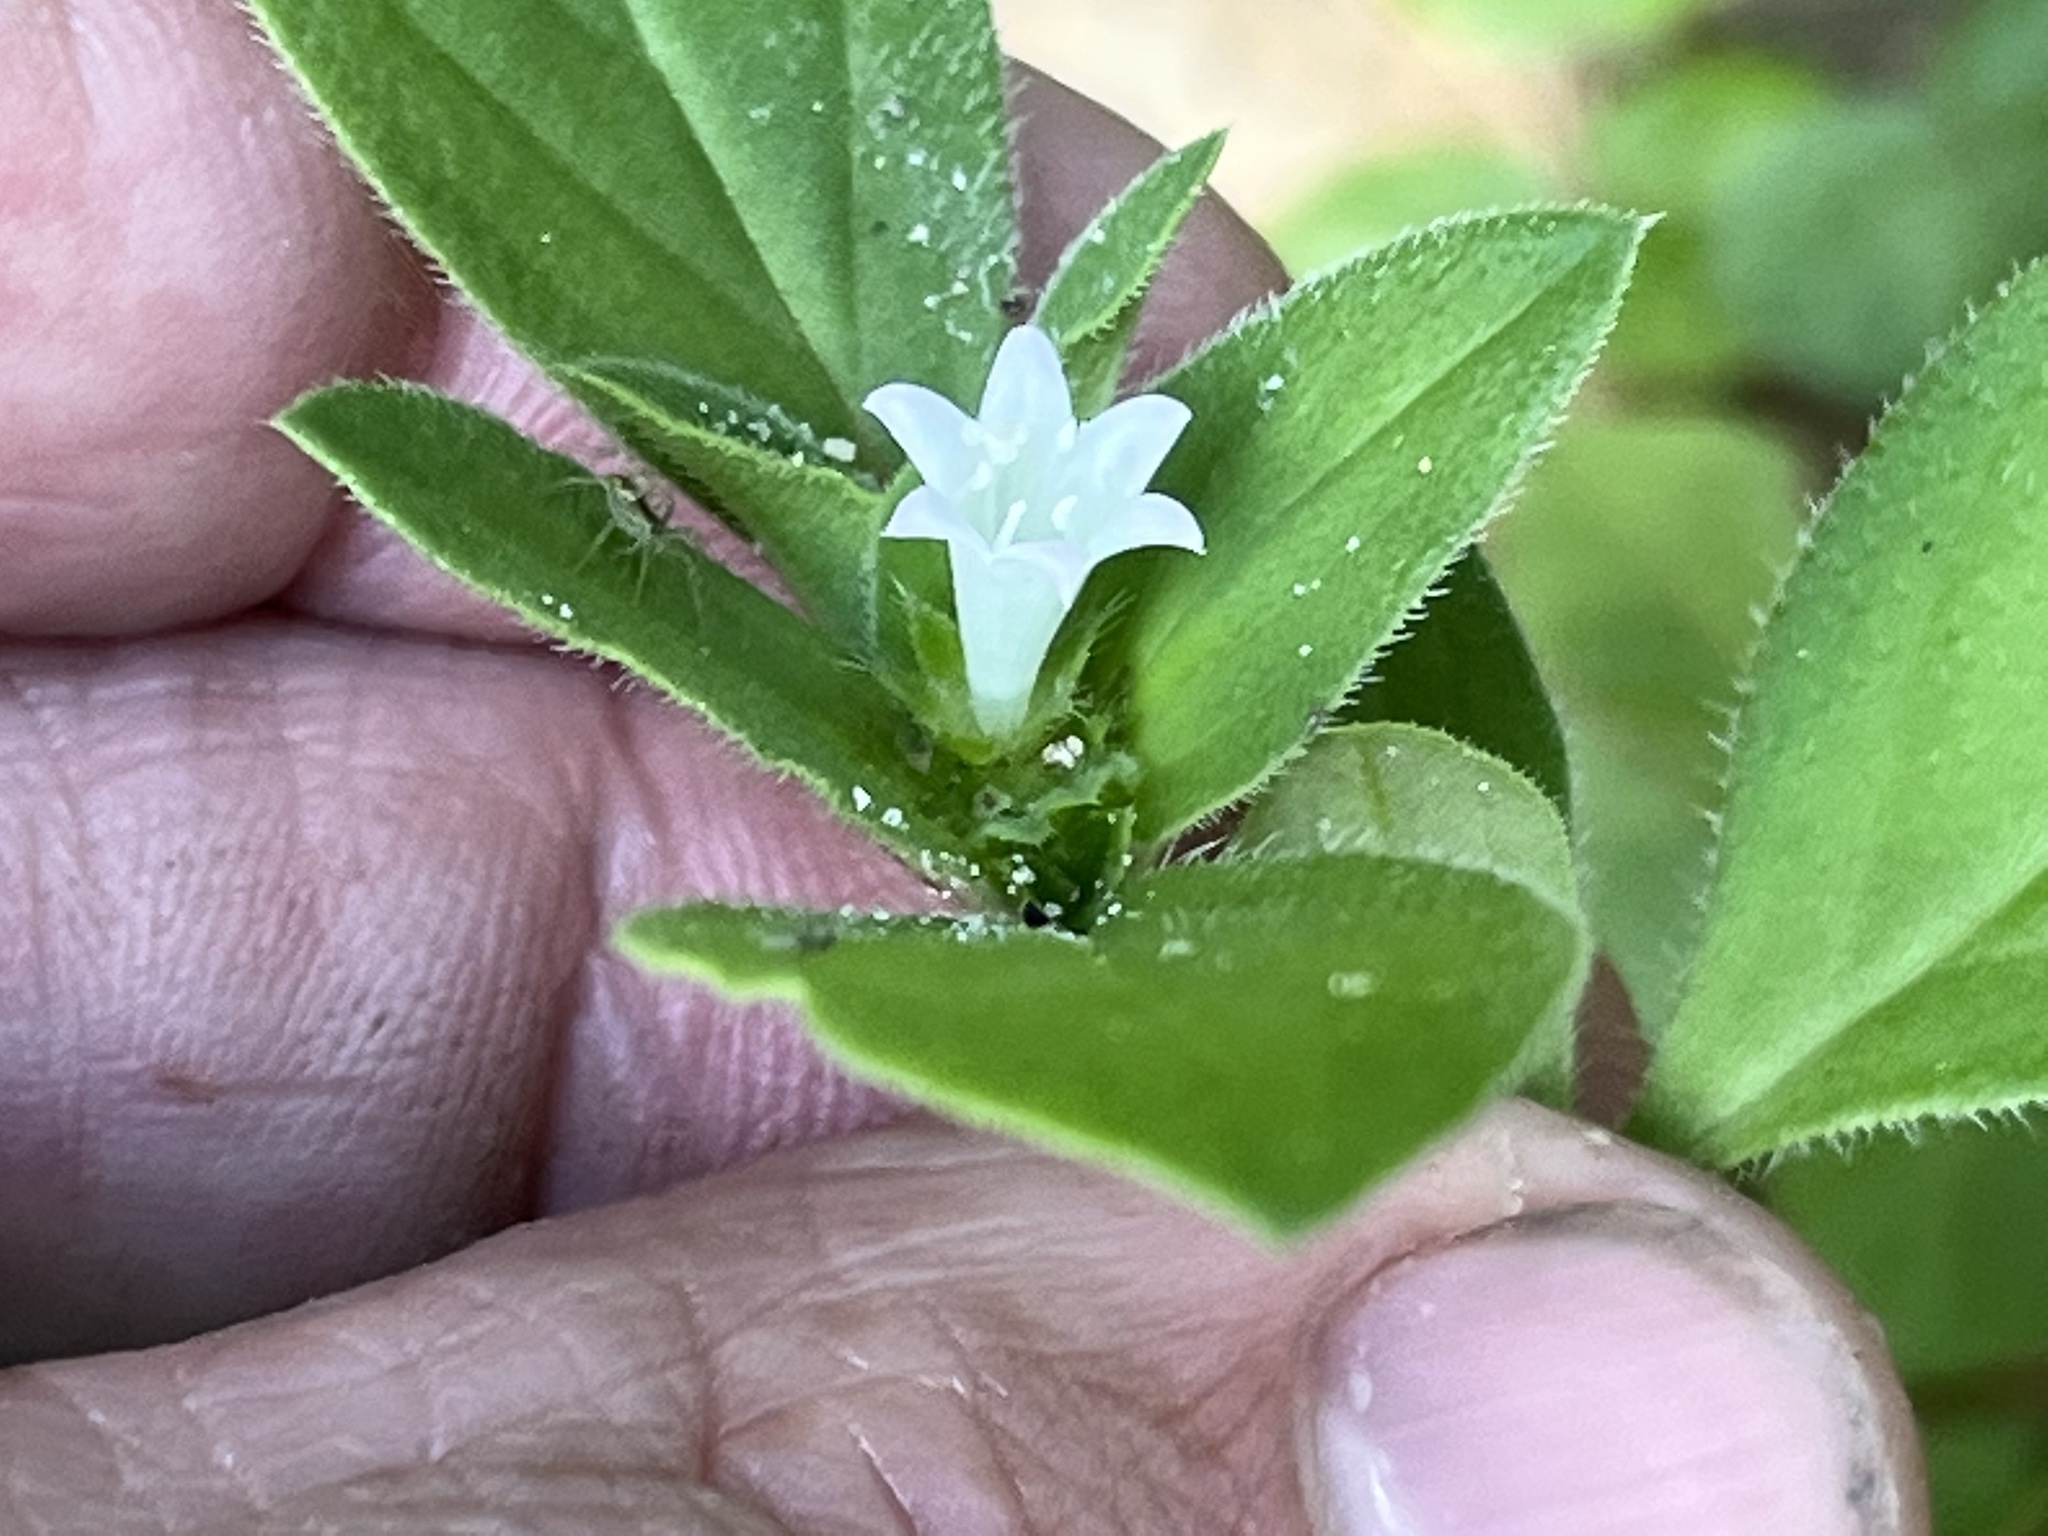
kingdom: Plantae
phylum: Tracheophyta
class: Magnoliopsida
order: Gentianales
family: Rubiaceae
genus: Richardia
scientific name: Richardia scabra
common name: Rough mexican clover
